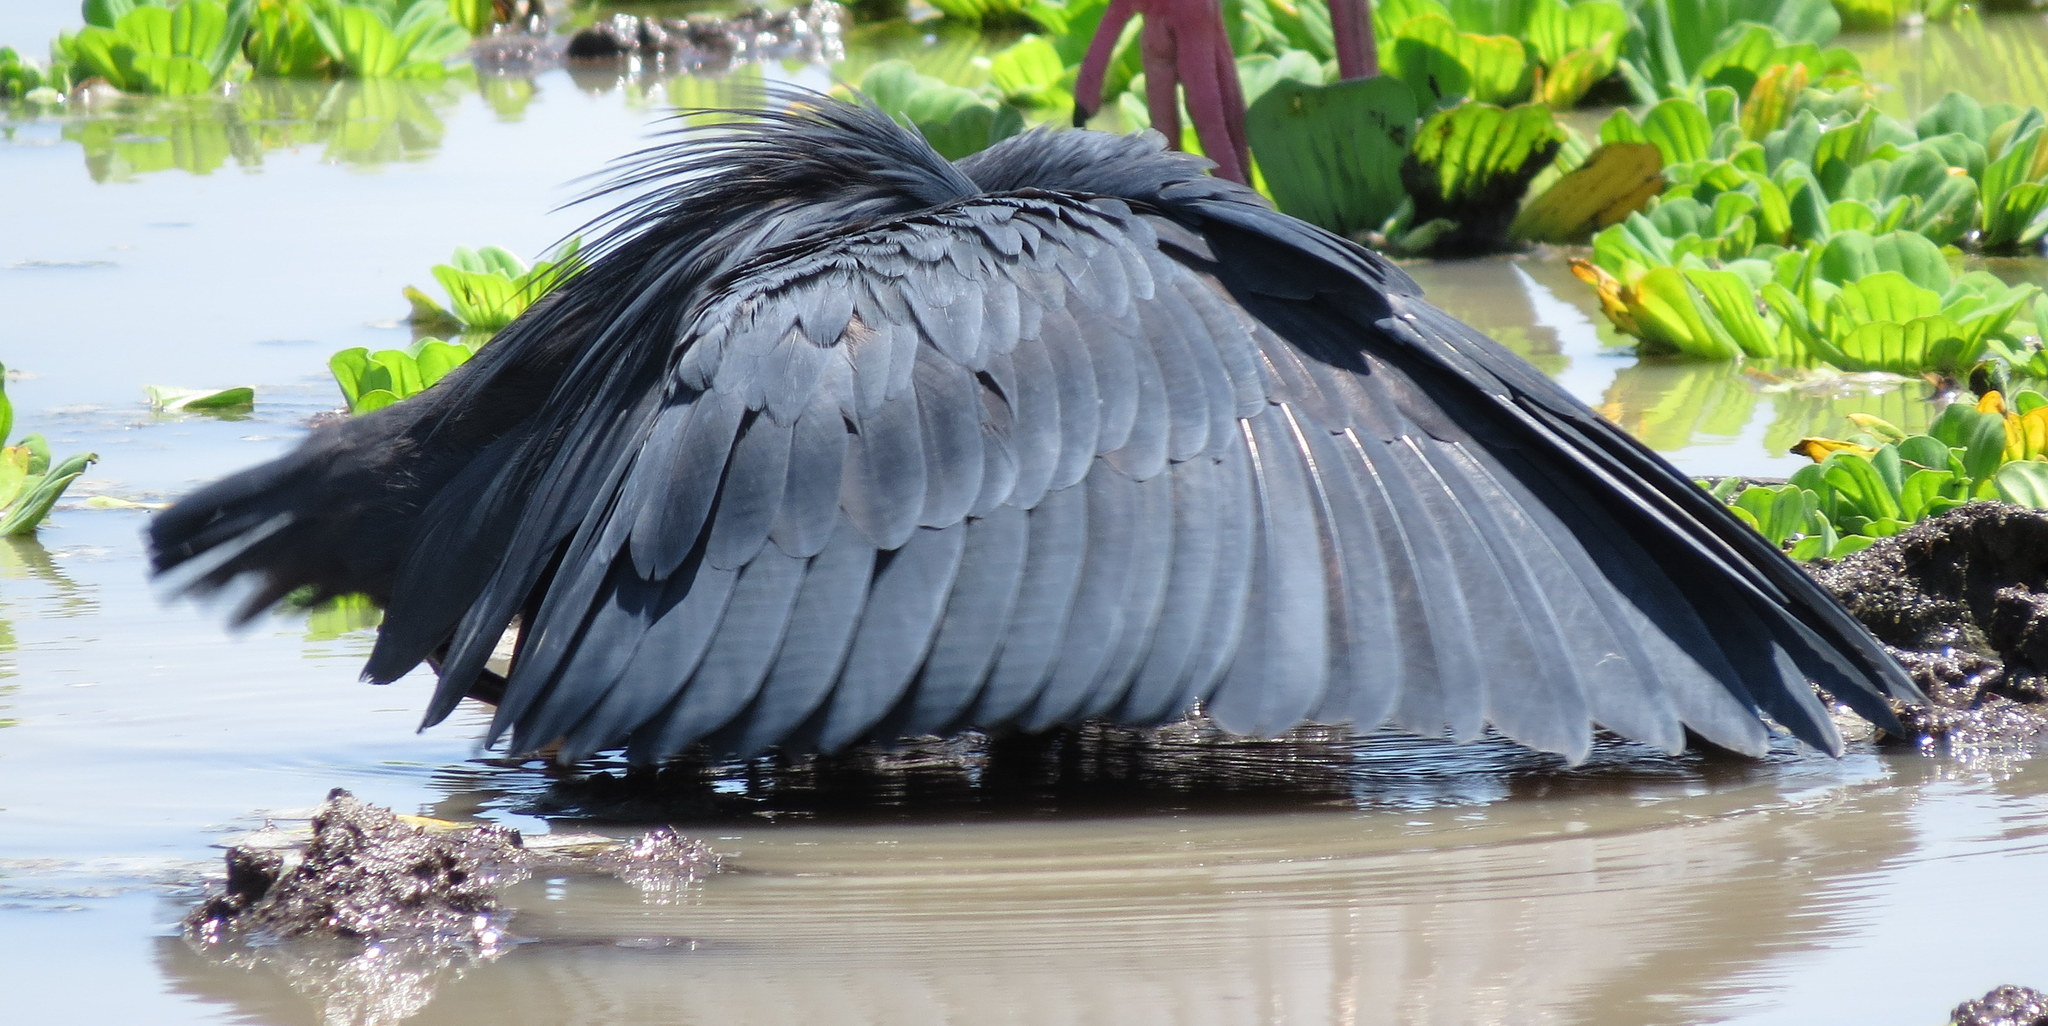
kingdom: Animalia
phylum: Chordata
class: Aves
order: Pelecaniformes
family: Ardeidae
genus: Egretta
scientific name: Egretta ardesiaca
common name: Black heron
